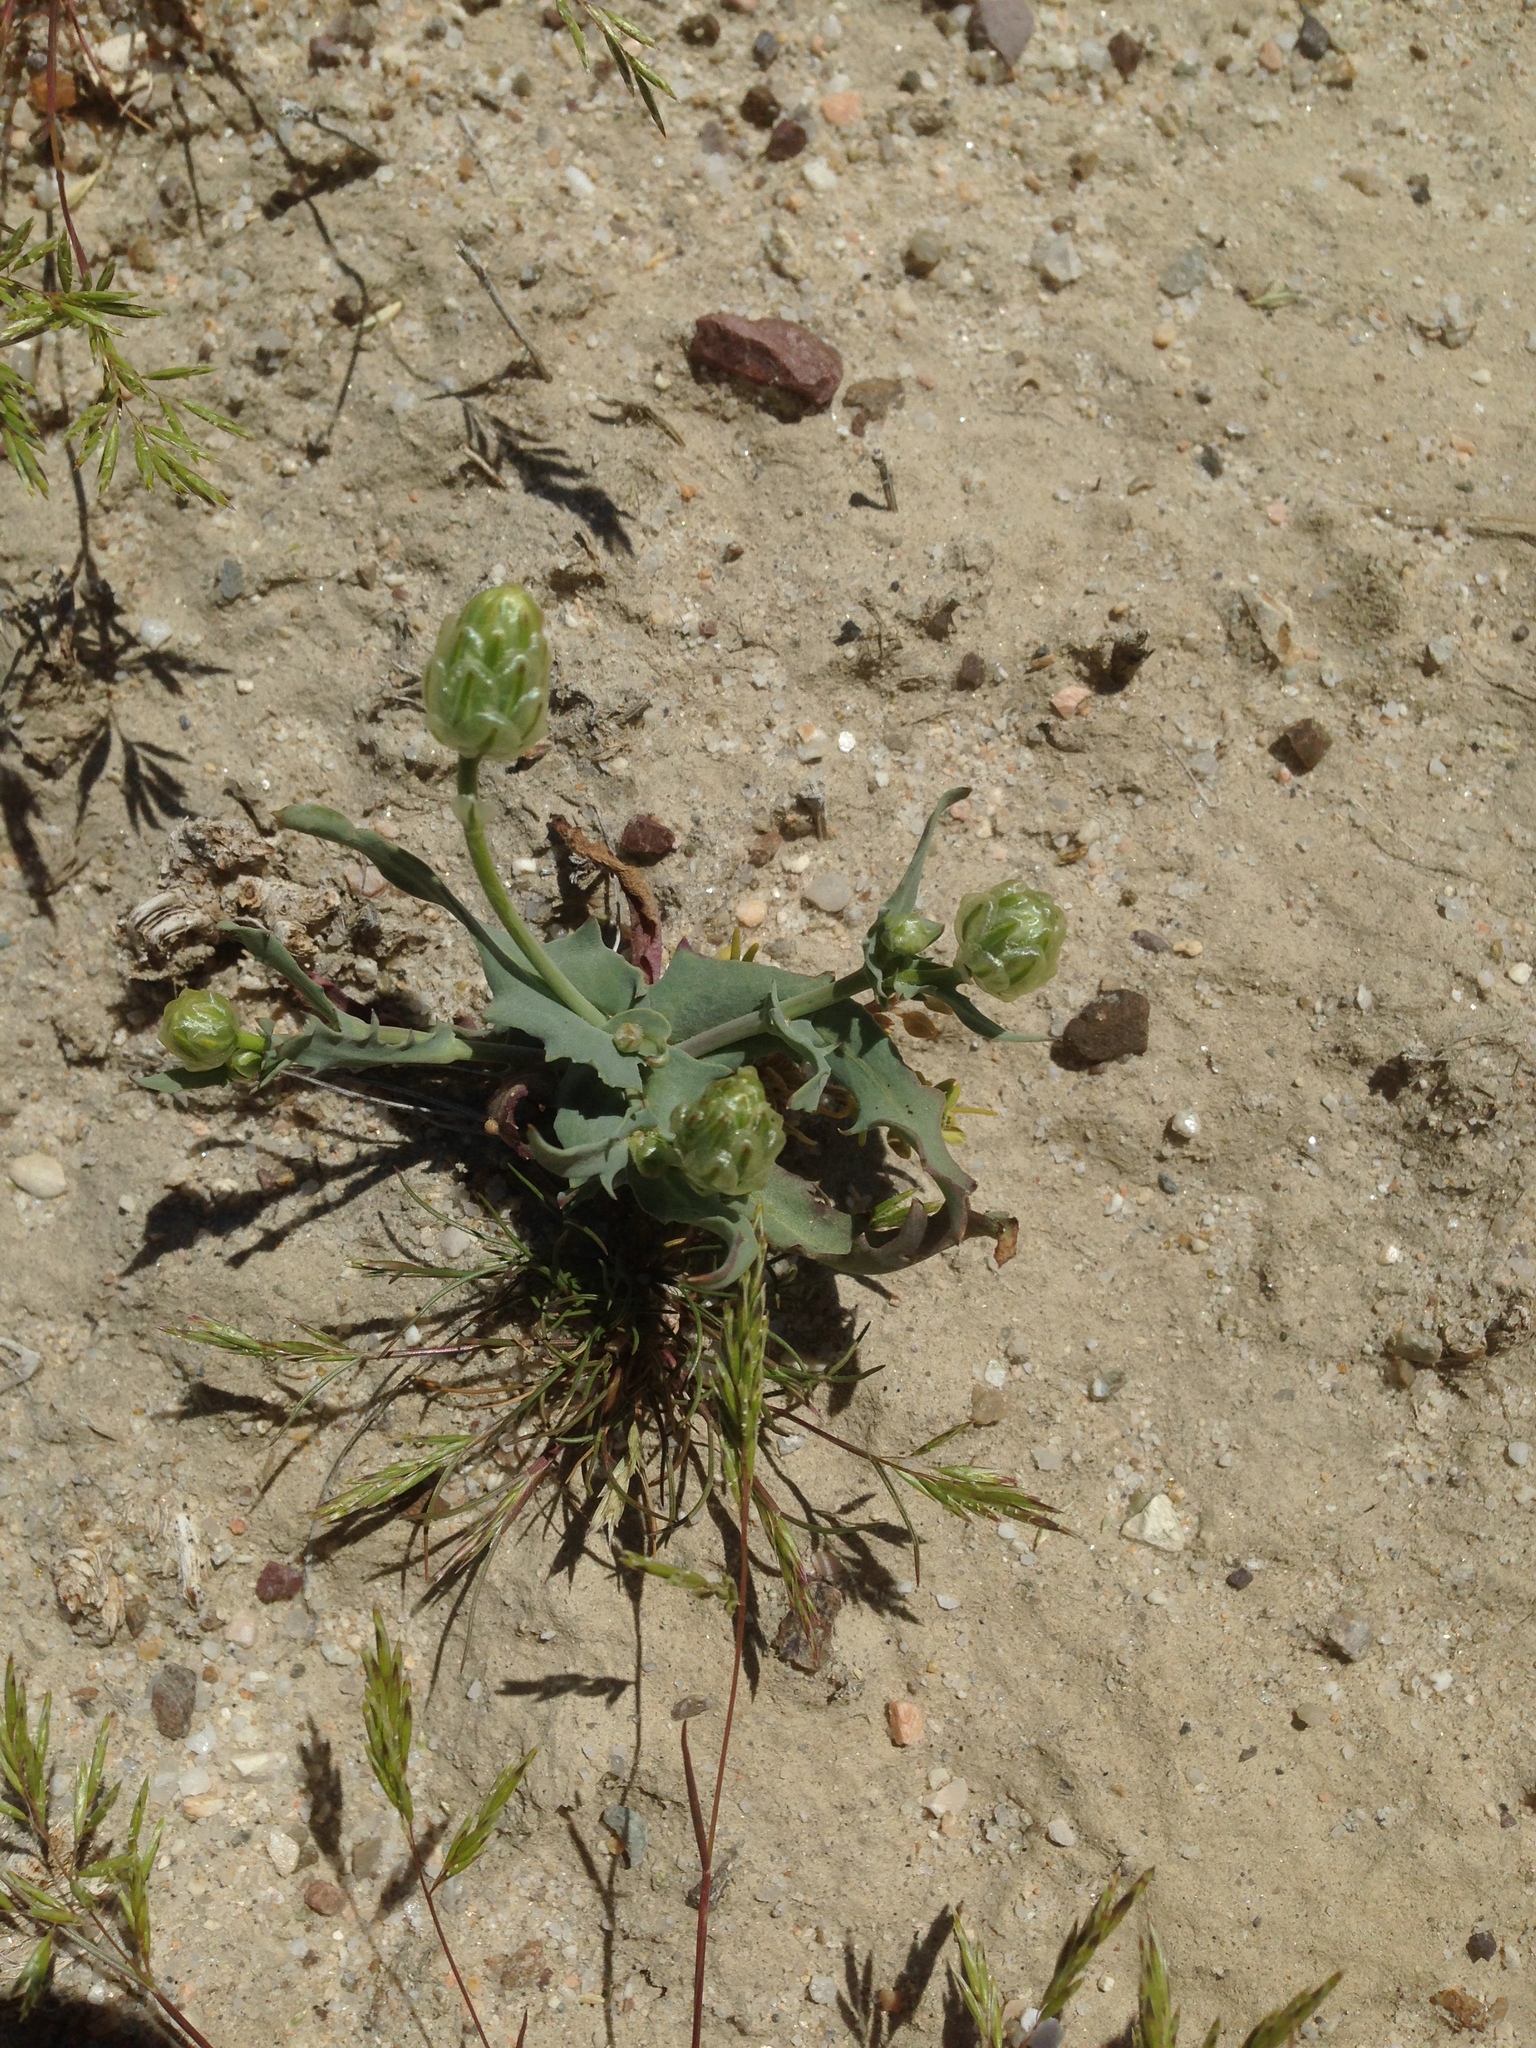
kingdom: Plantae
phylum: Tracheophyta
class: Magnoliopsida
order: Asterales
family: Asteraceae
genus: Malacothrix
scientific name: Malacothrix coulteri
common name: Snake's-head
